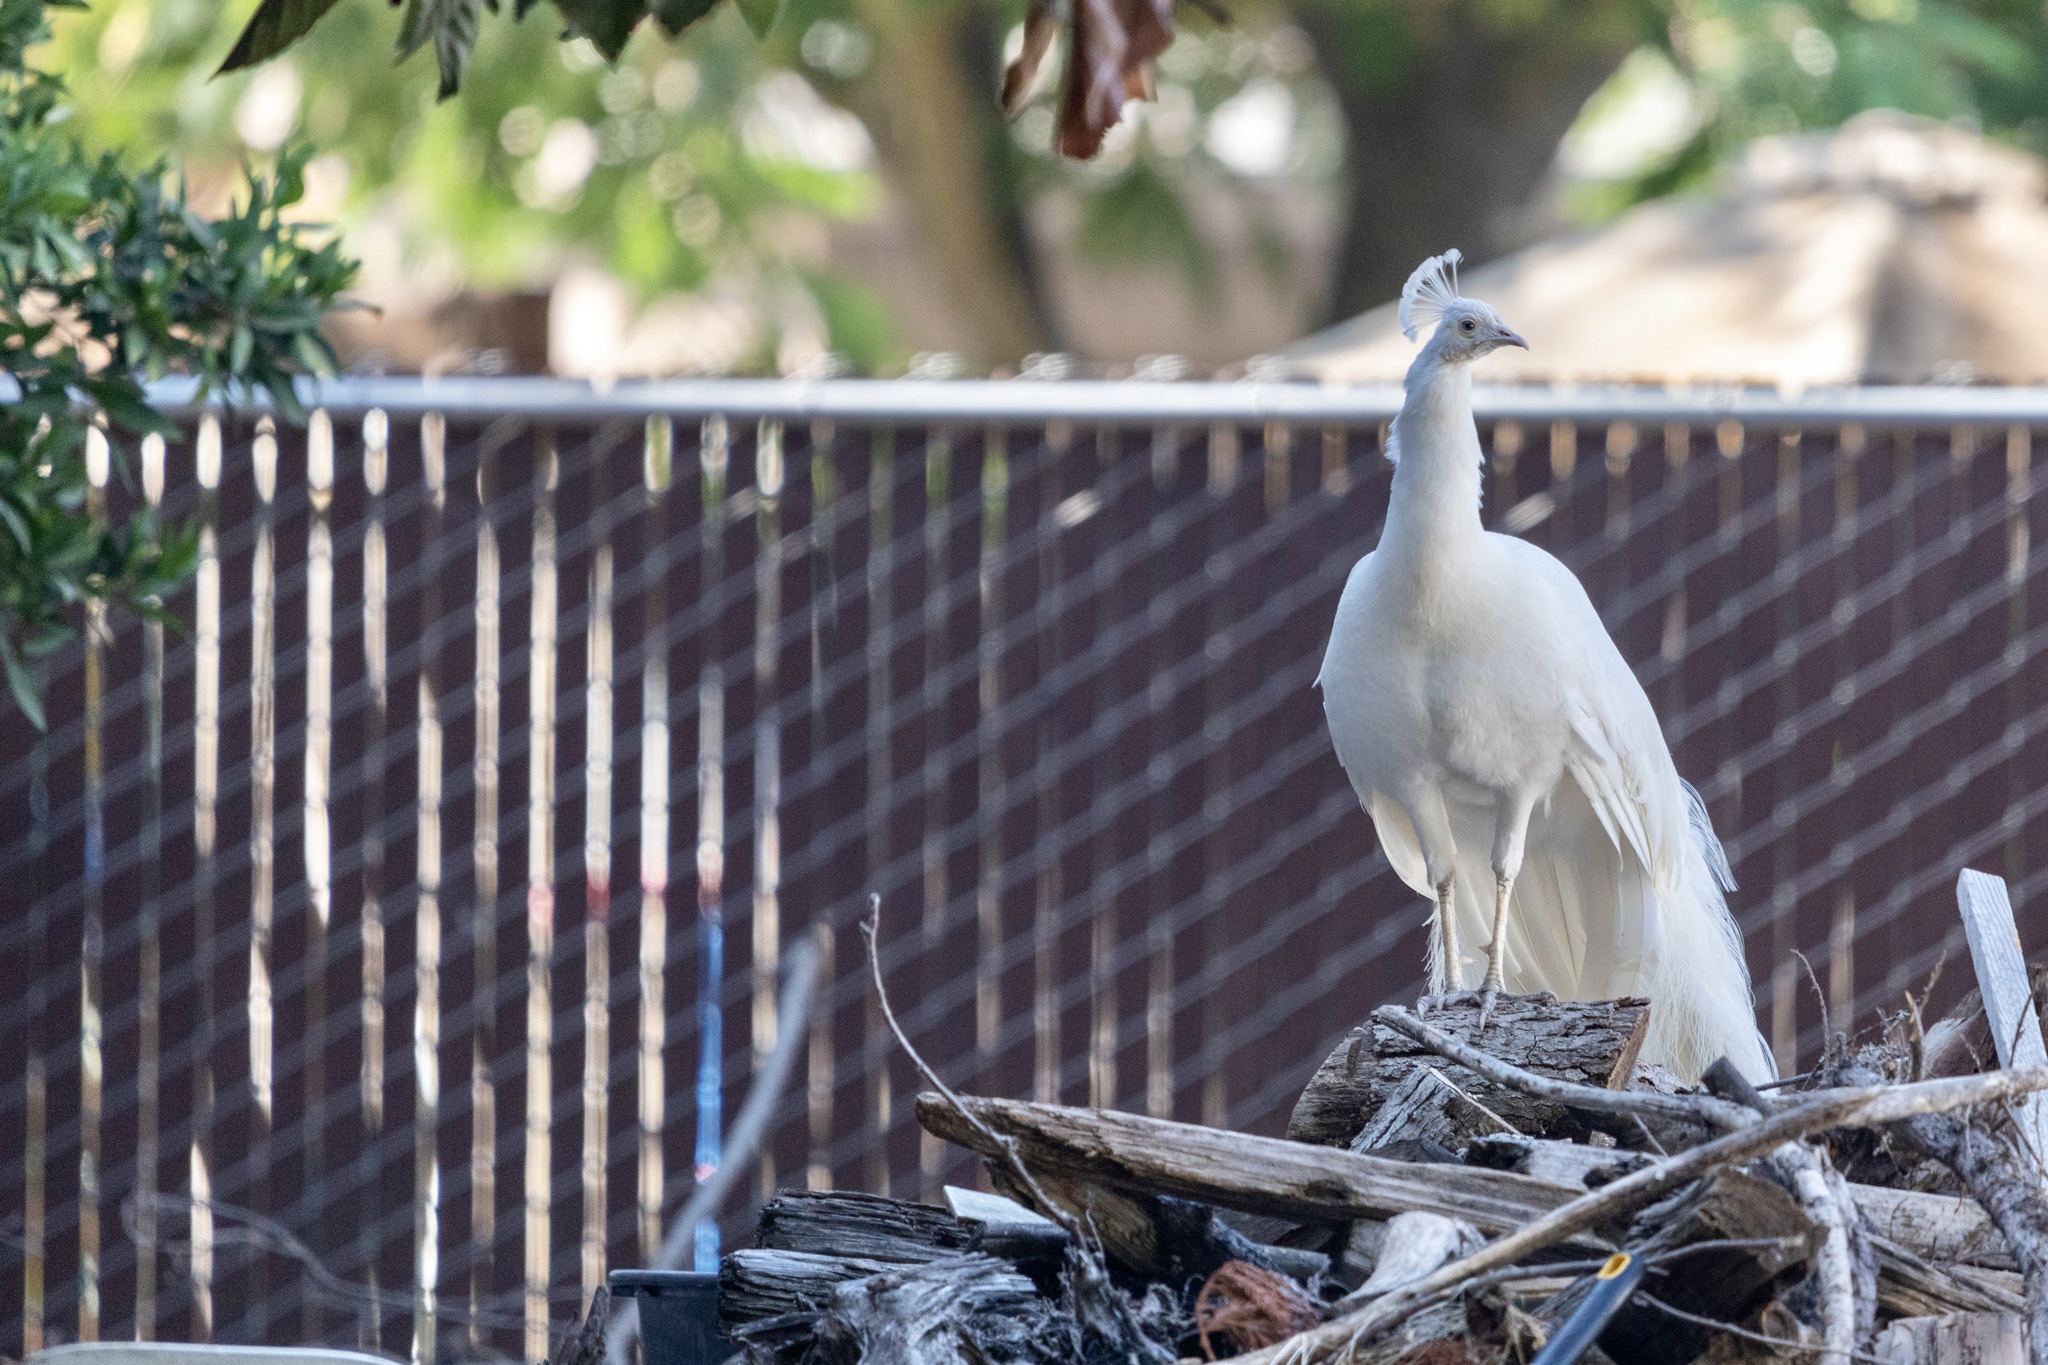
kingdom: Animalia
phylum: Chordata
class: Aves
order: Galliformes
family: Phasianidae
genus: Pavo
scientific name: Pavo cristatus
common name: Indian peafowl
